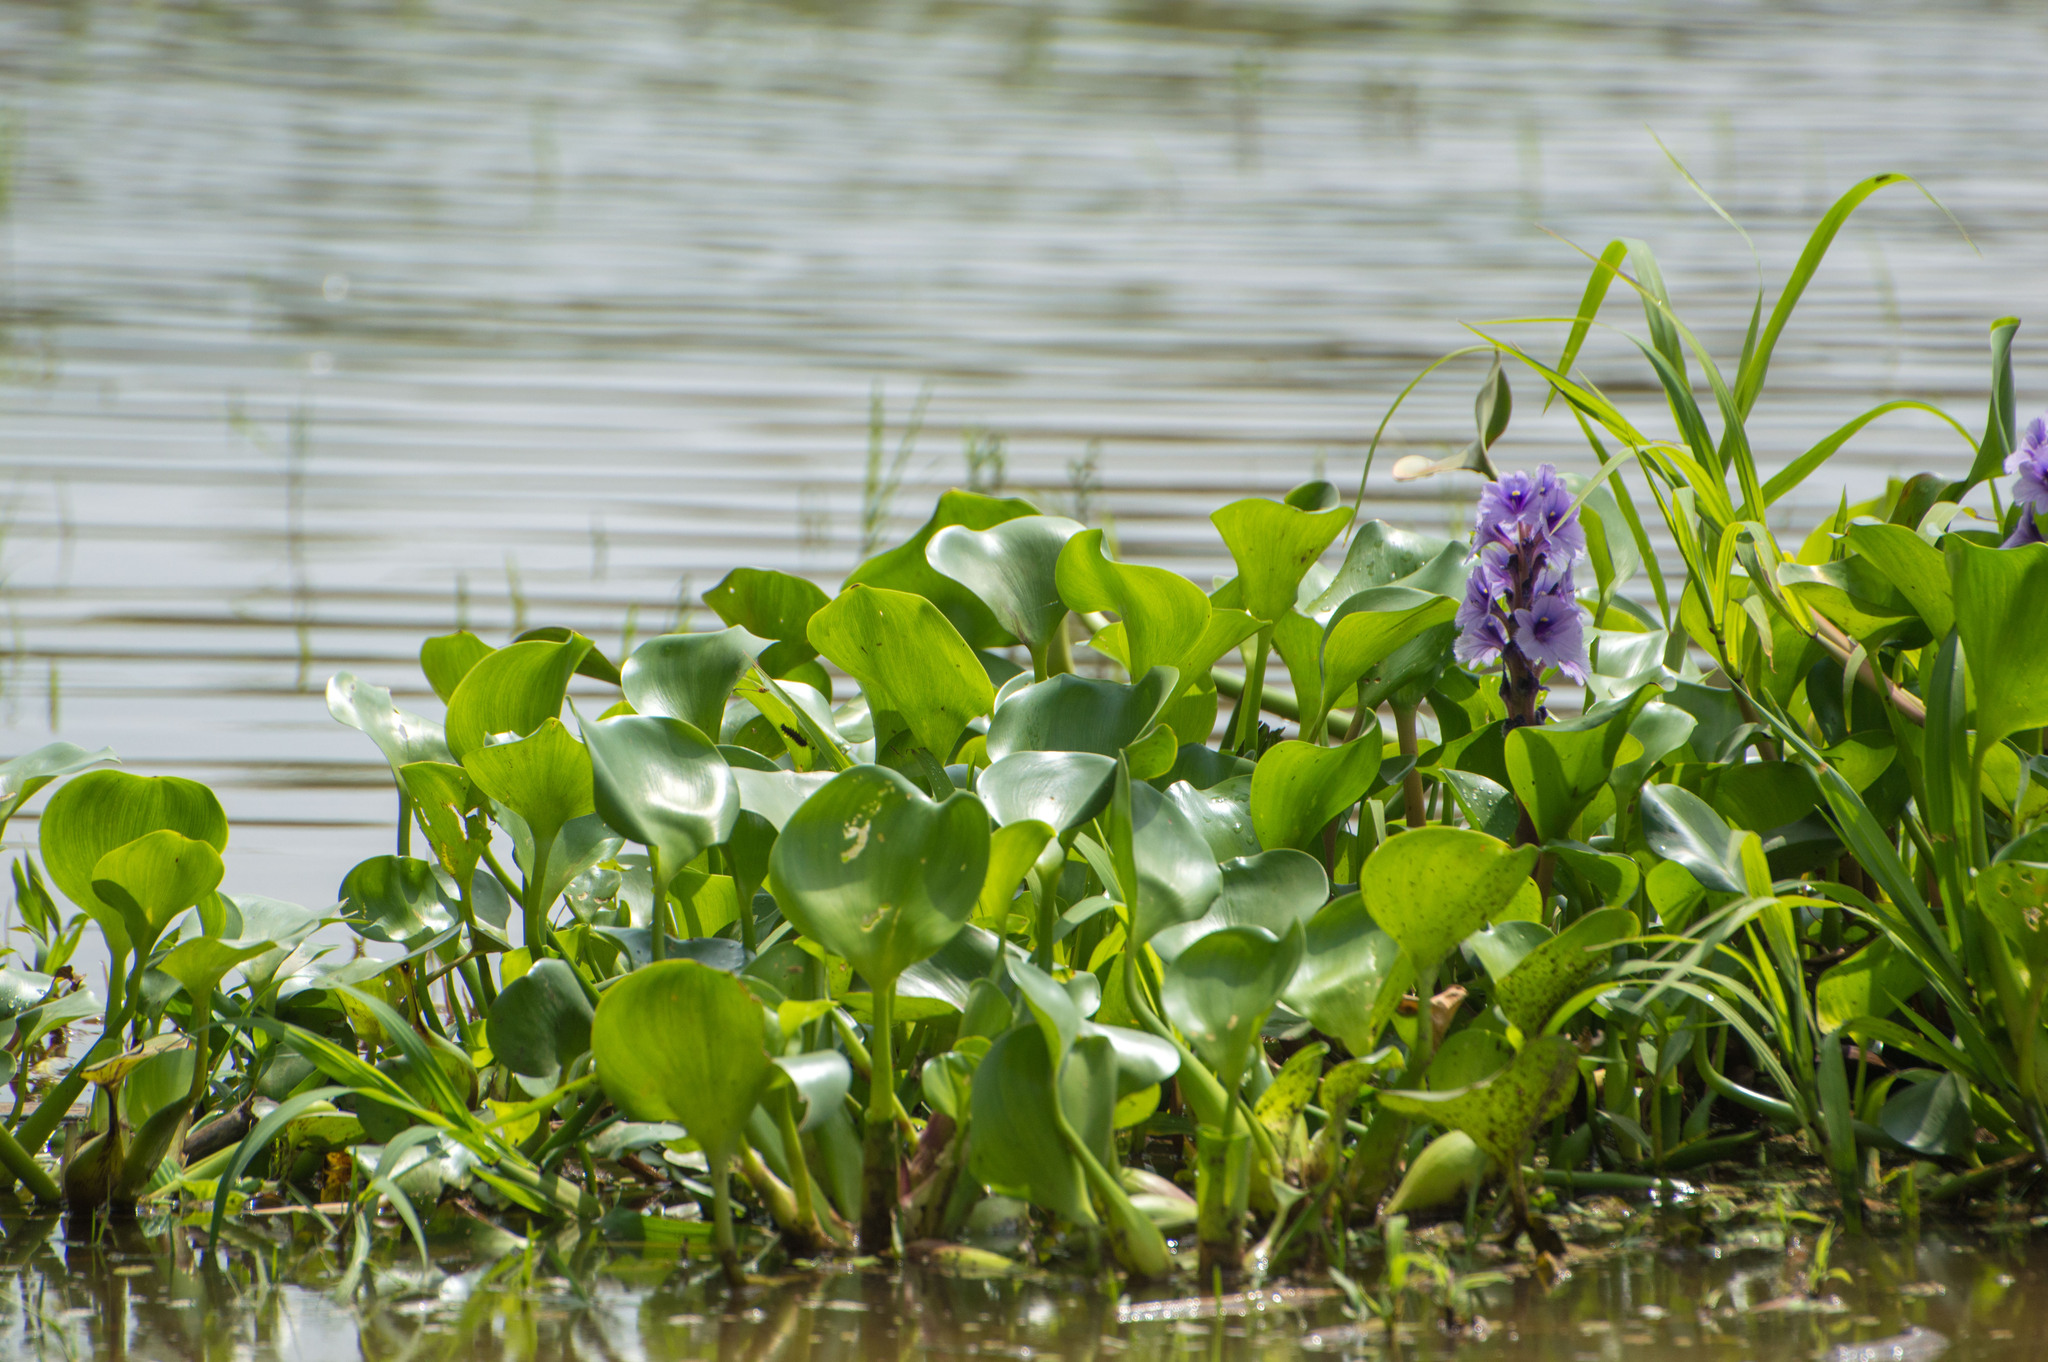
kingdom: Plantae
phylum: Tracheophyta
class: Liliopsida
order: Commelinales
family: Pontederiaceae
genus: Pontederia
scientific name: Pontederia azurea
